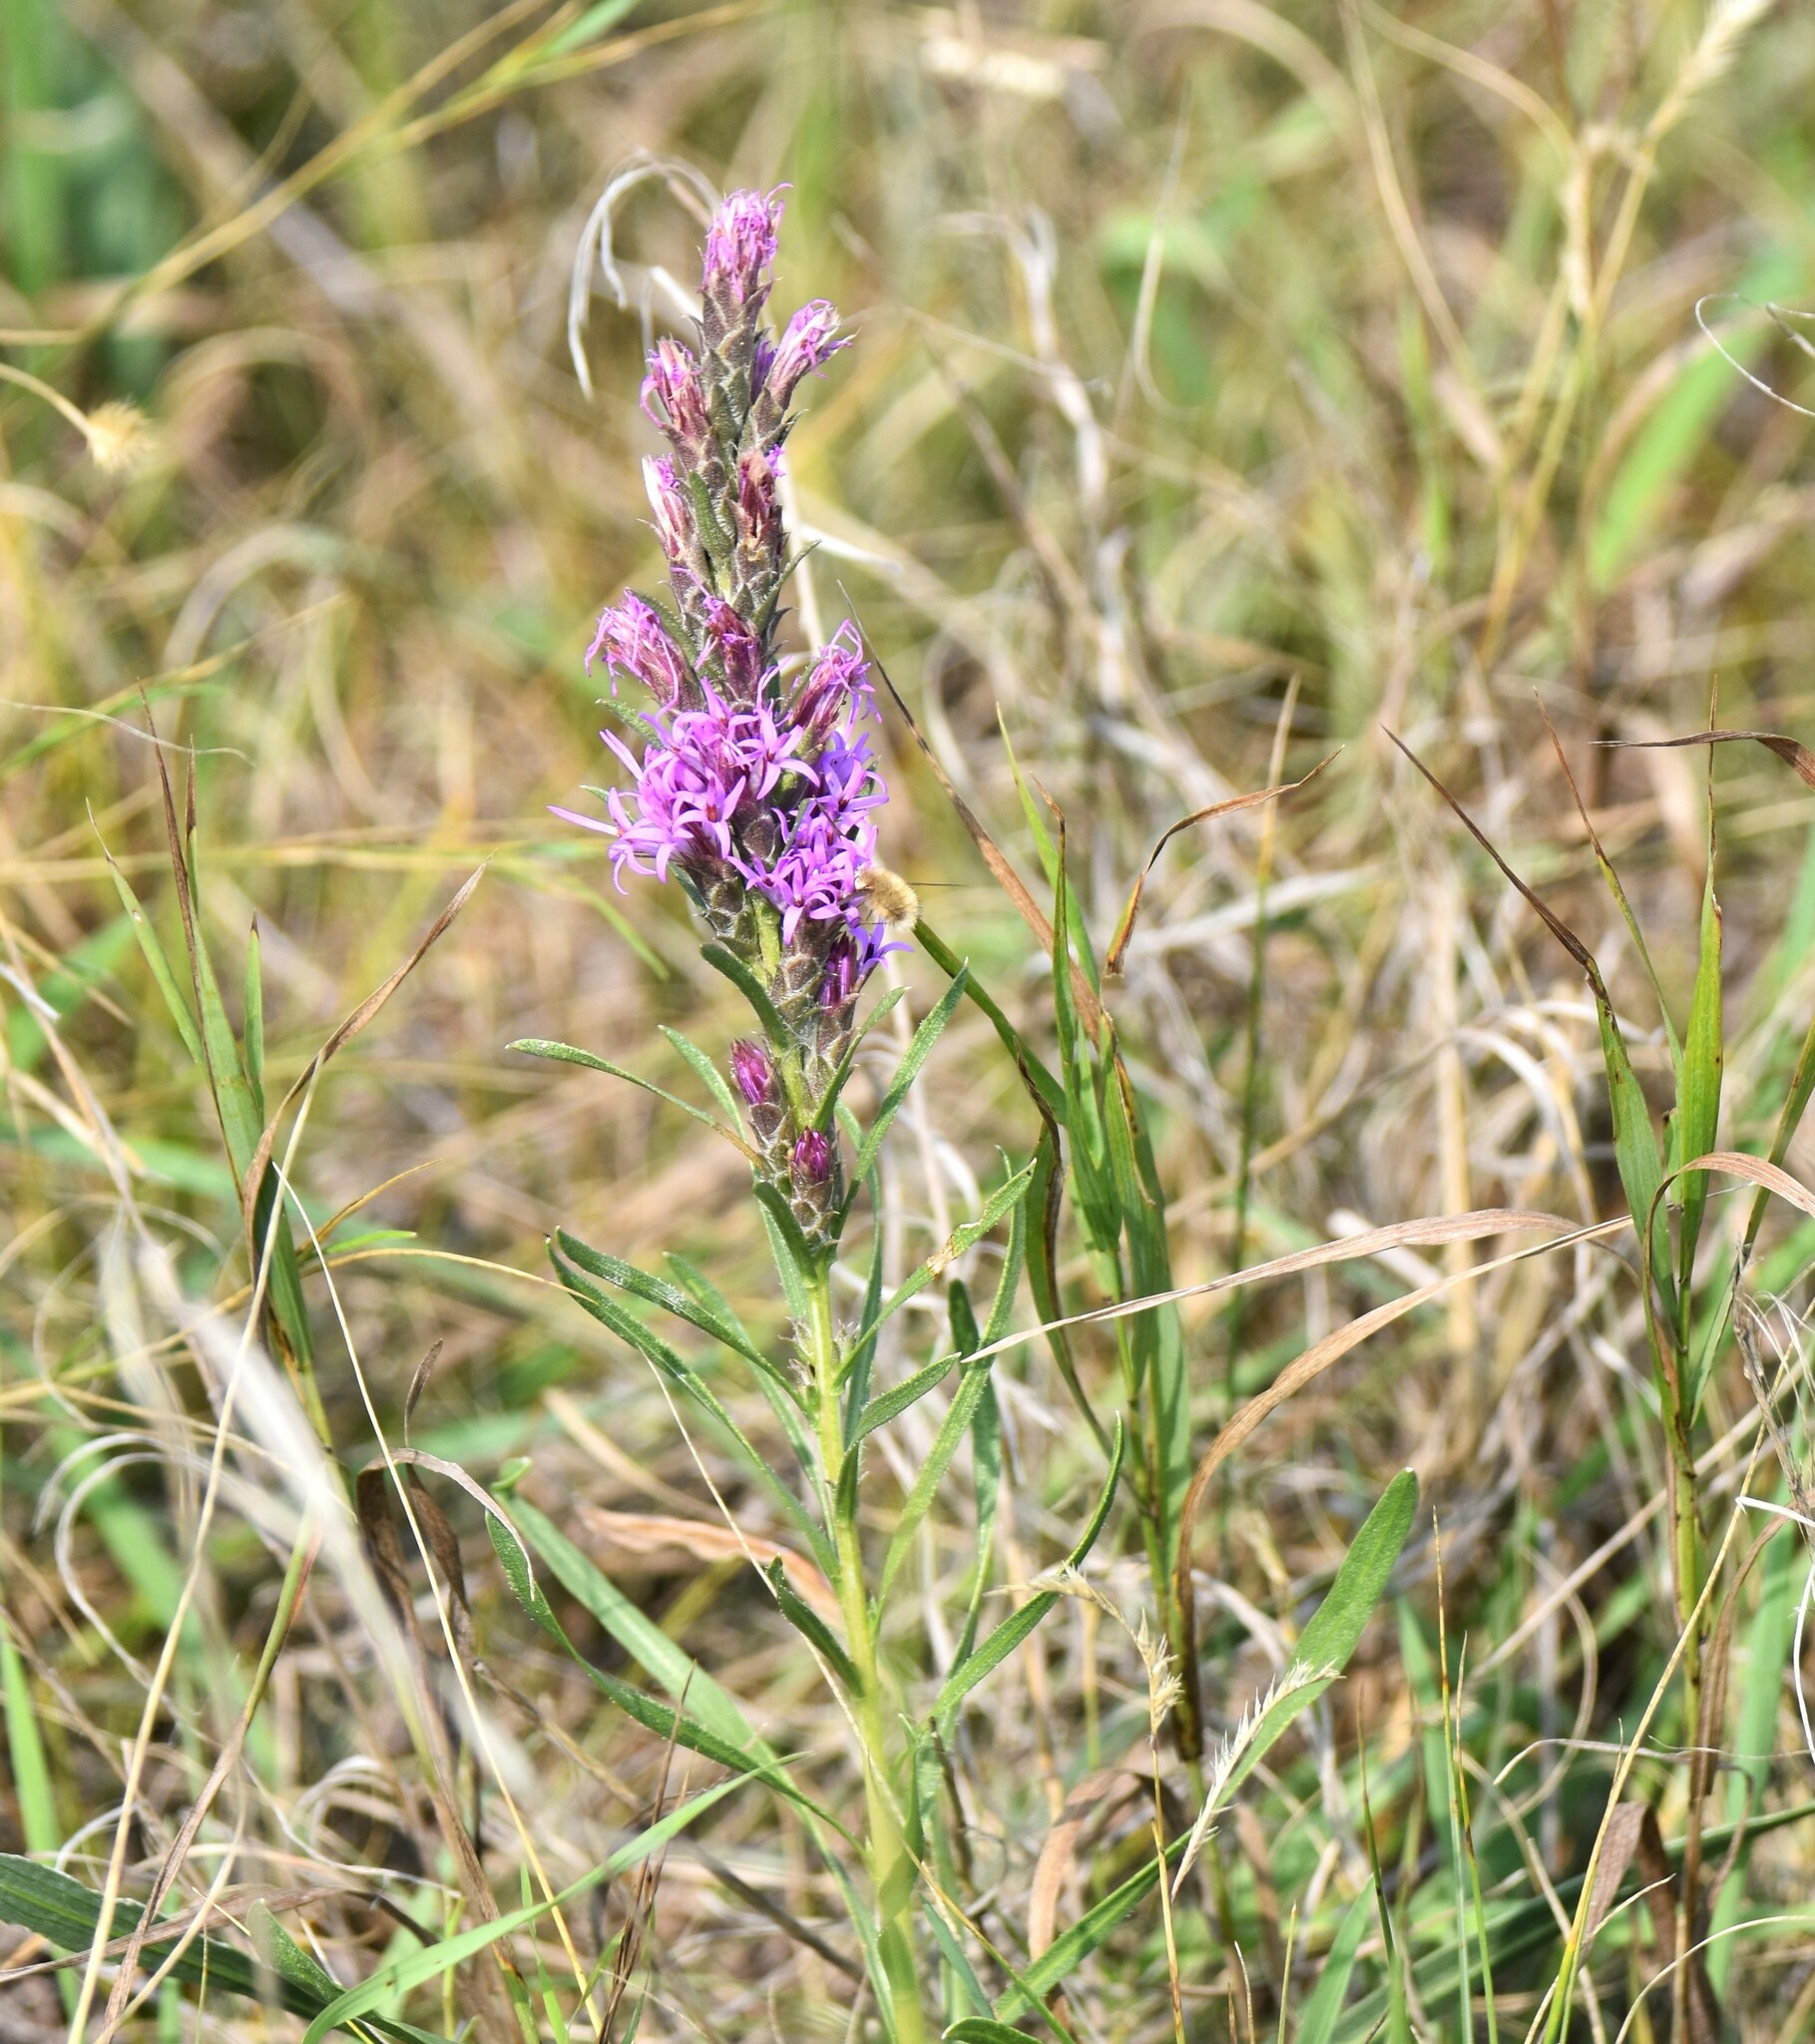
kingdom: Plantae
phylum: Tracheophyta
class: Magnoliopsida
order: Asterales
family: Asteraceae
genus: Liatris
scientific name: Liatris punctata
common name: Dotted gayfeather
